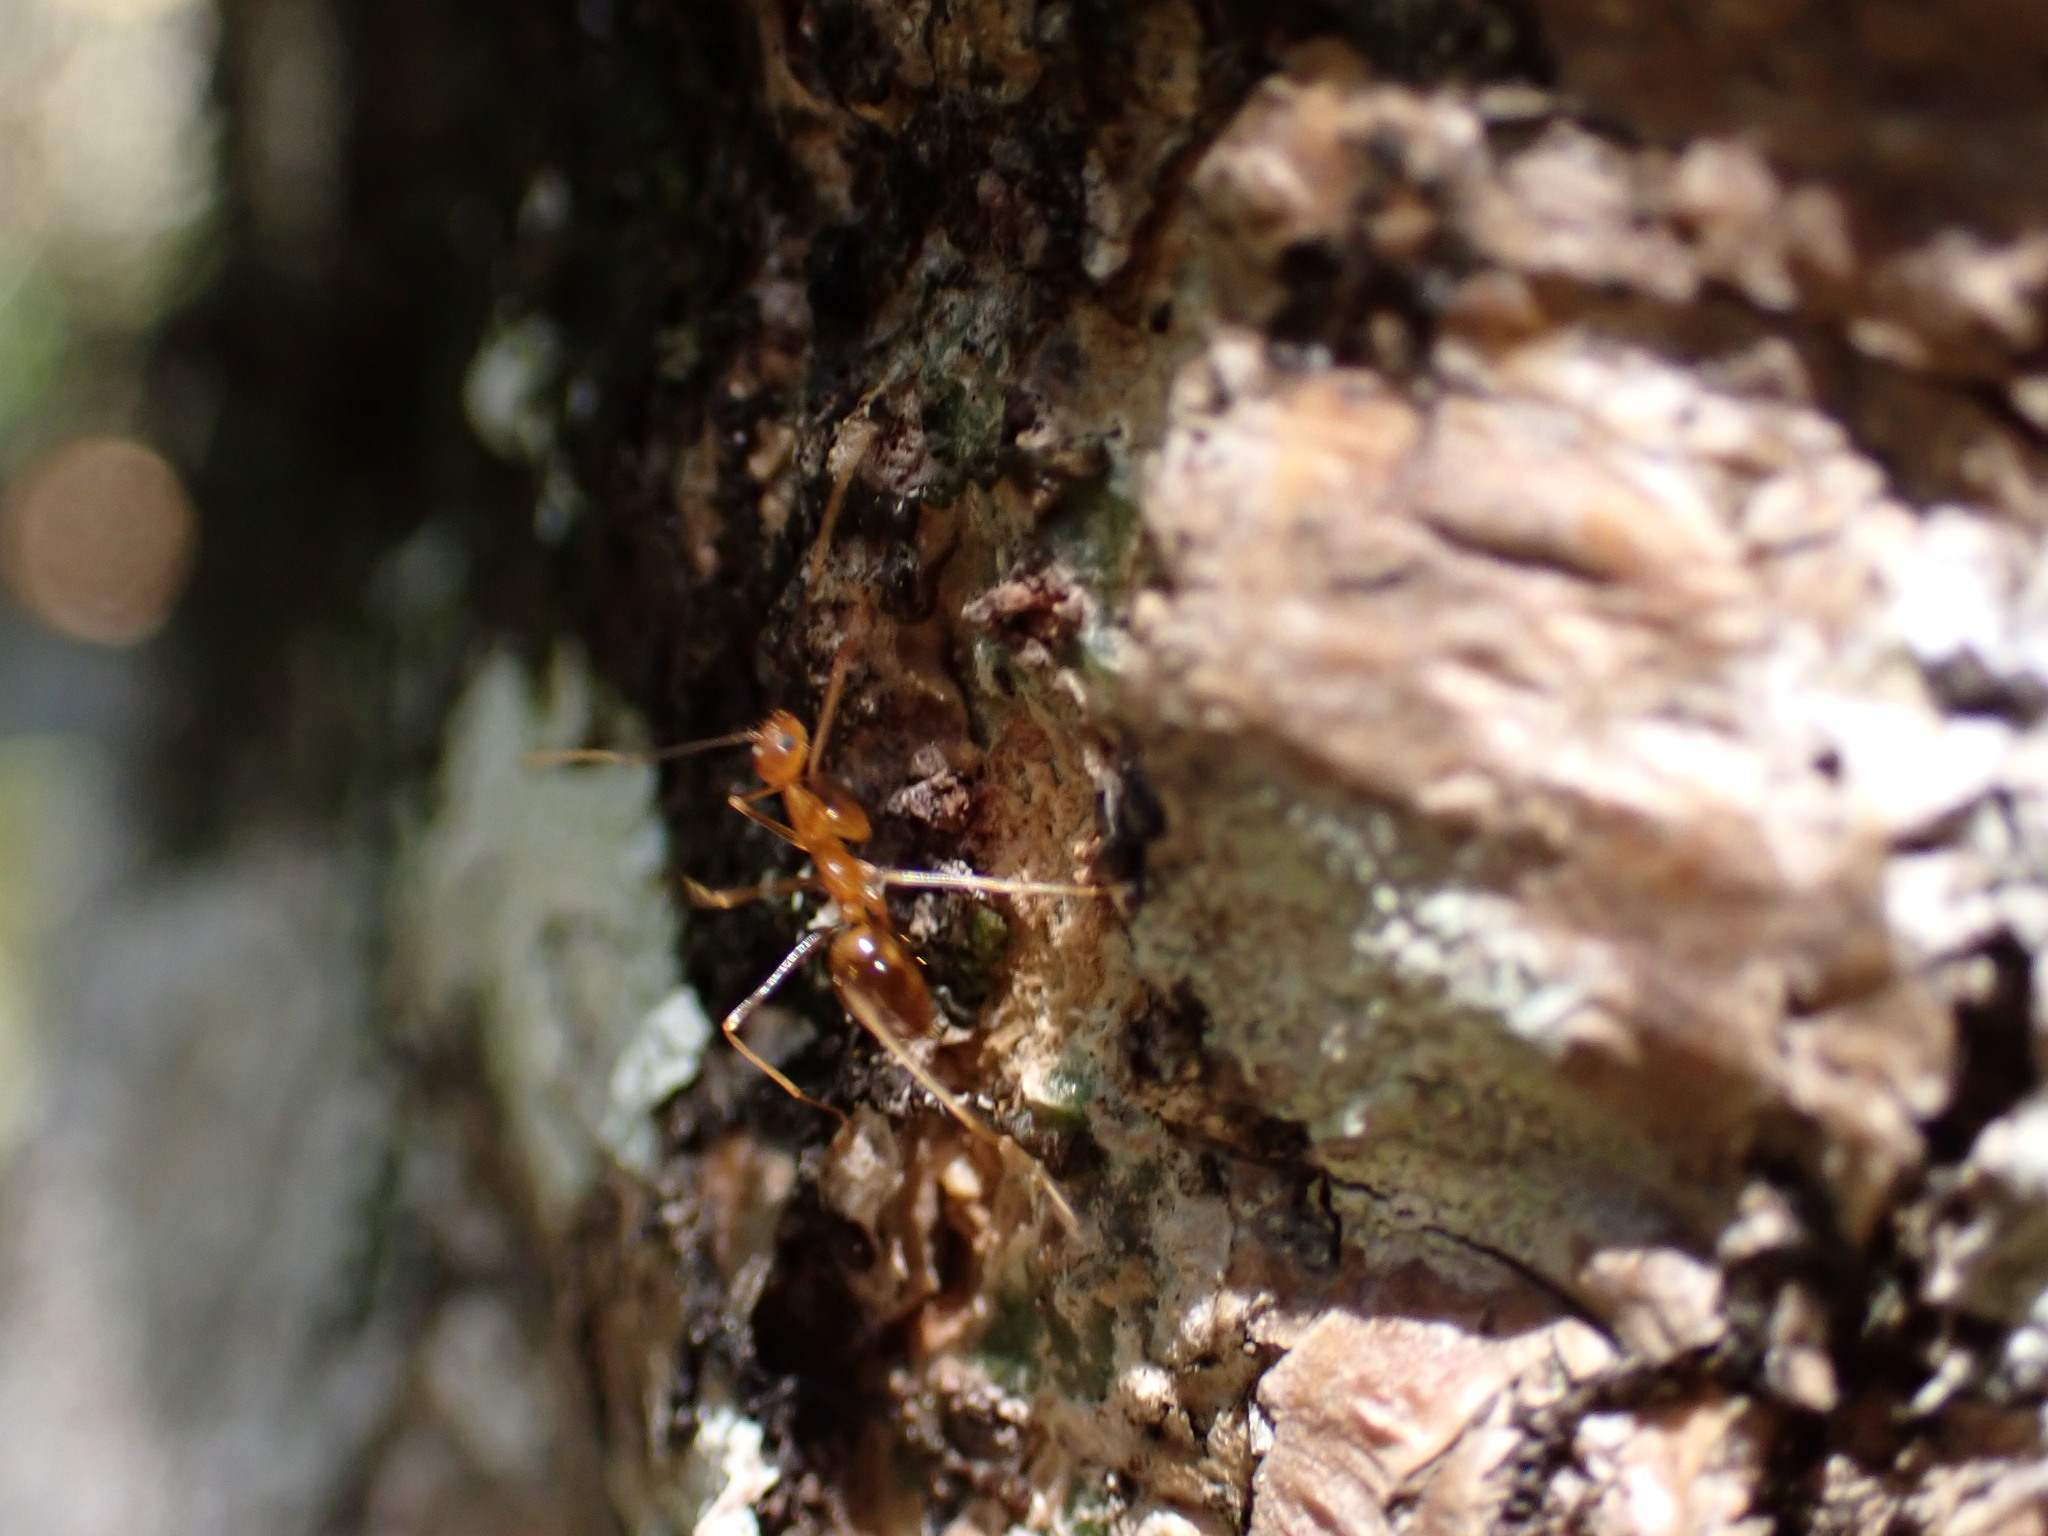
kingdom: Animalia
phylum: Arthropoda
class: Insecta
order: Hymenoptera
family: Formicidae
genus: Anoplolepis
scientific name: Anoplolepis gracilipes
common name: Ant
